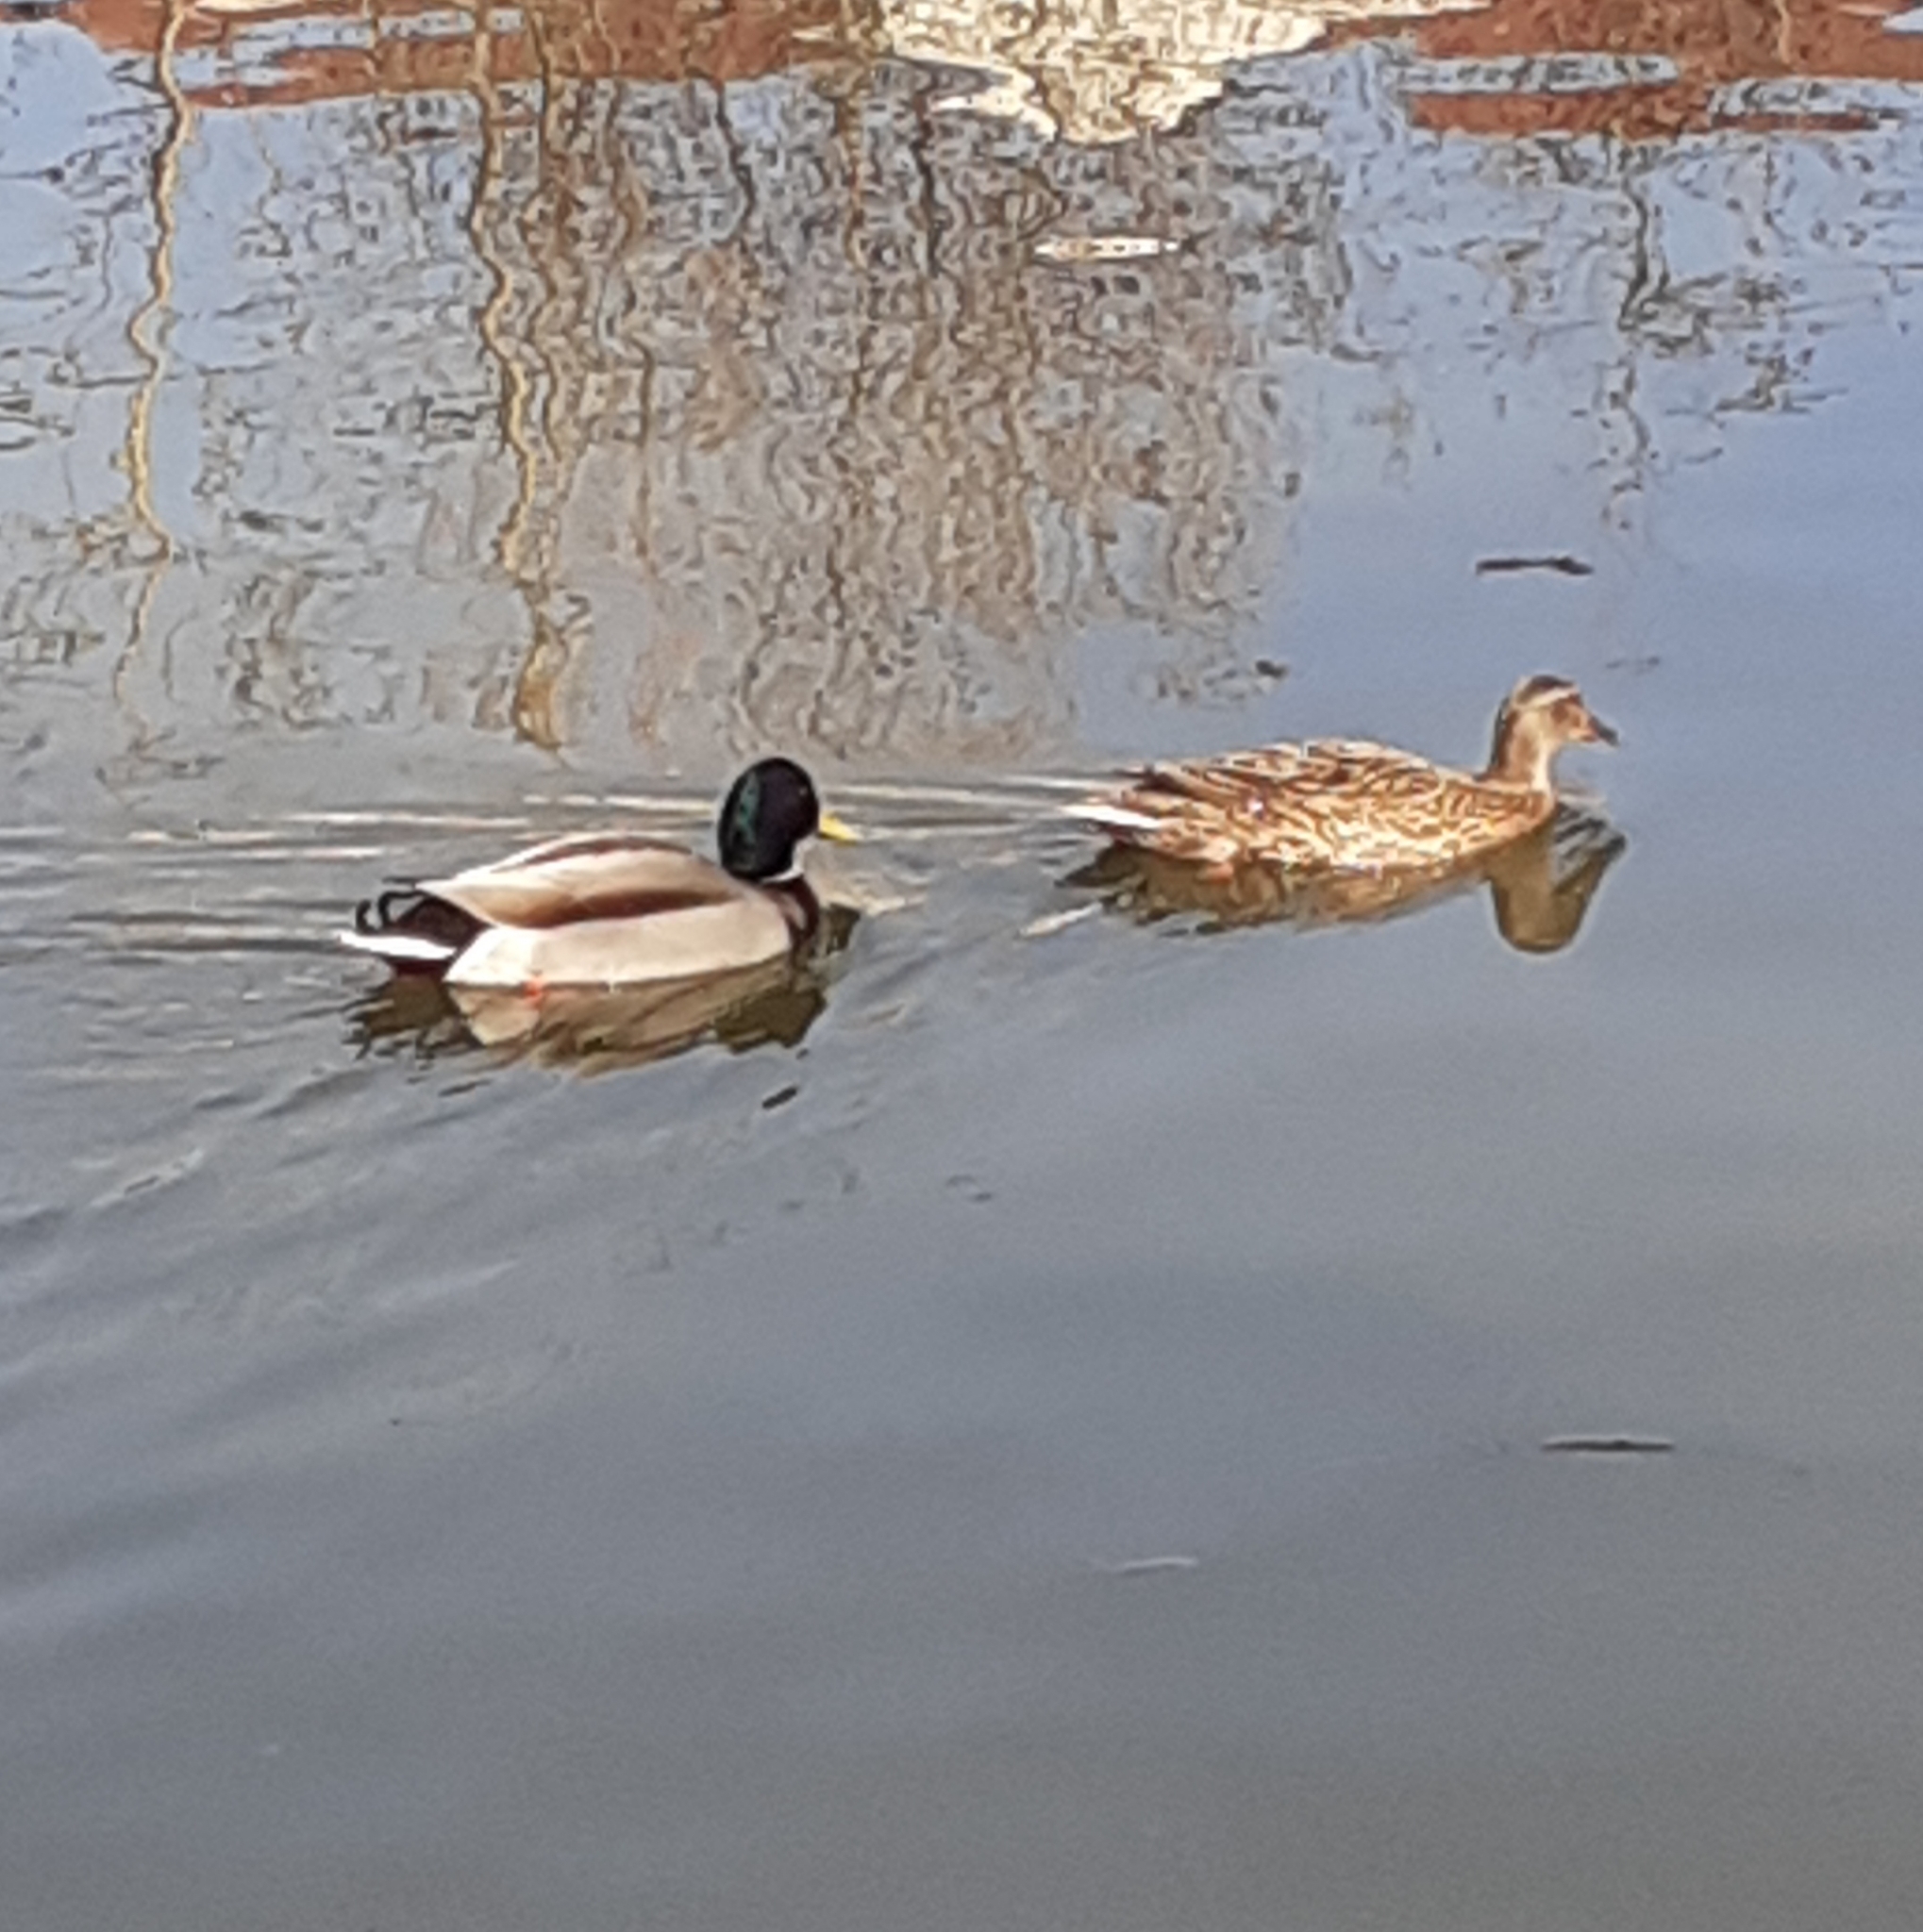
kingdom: Animalia
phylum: Chordata
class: Aves
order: Anseriformes
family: Anatidae
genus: Anas
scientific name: Anas platyrhynchos
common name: Mallard
